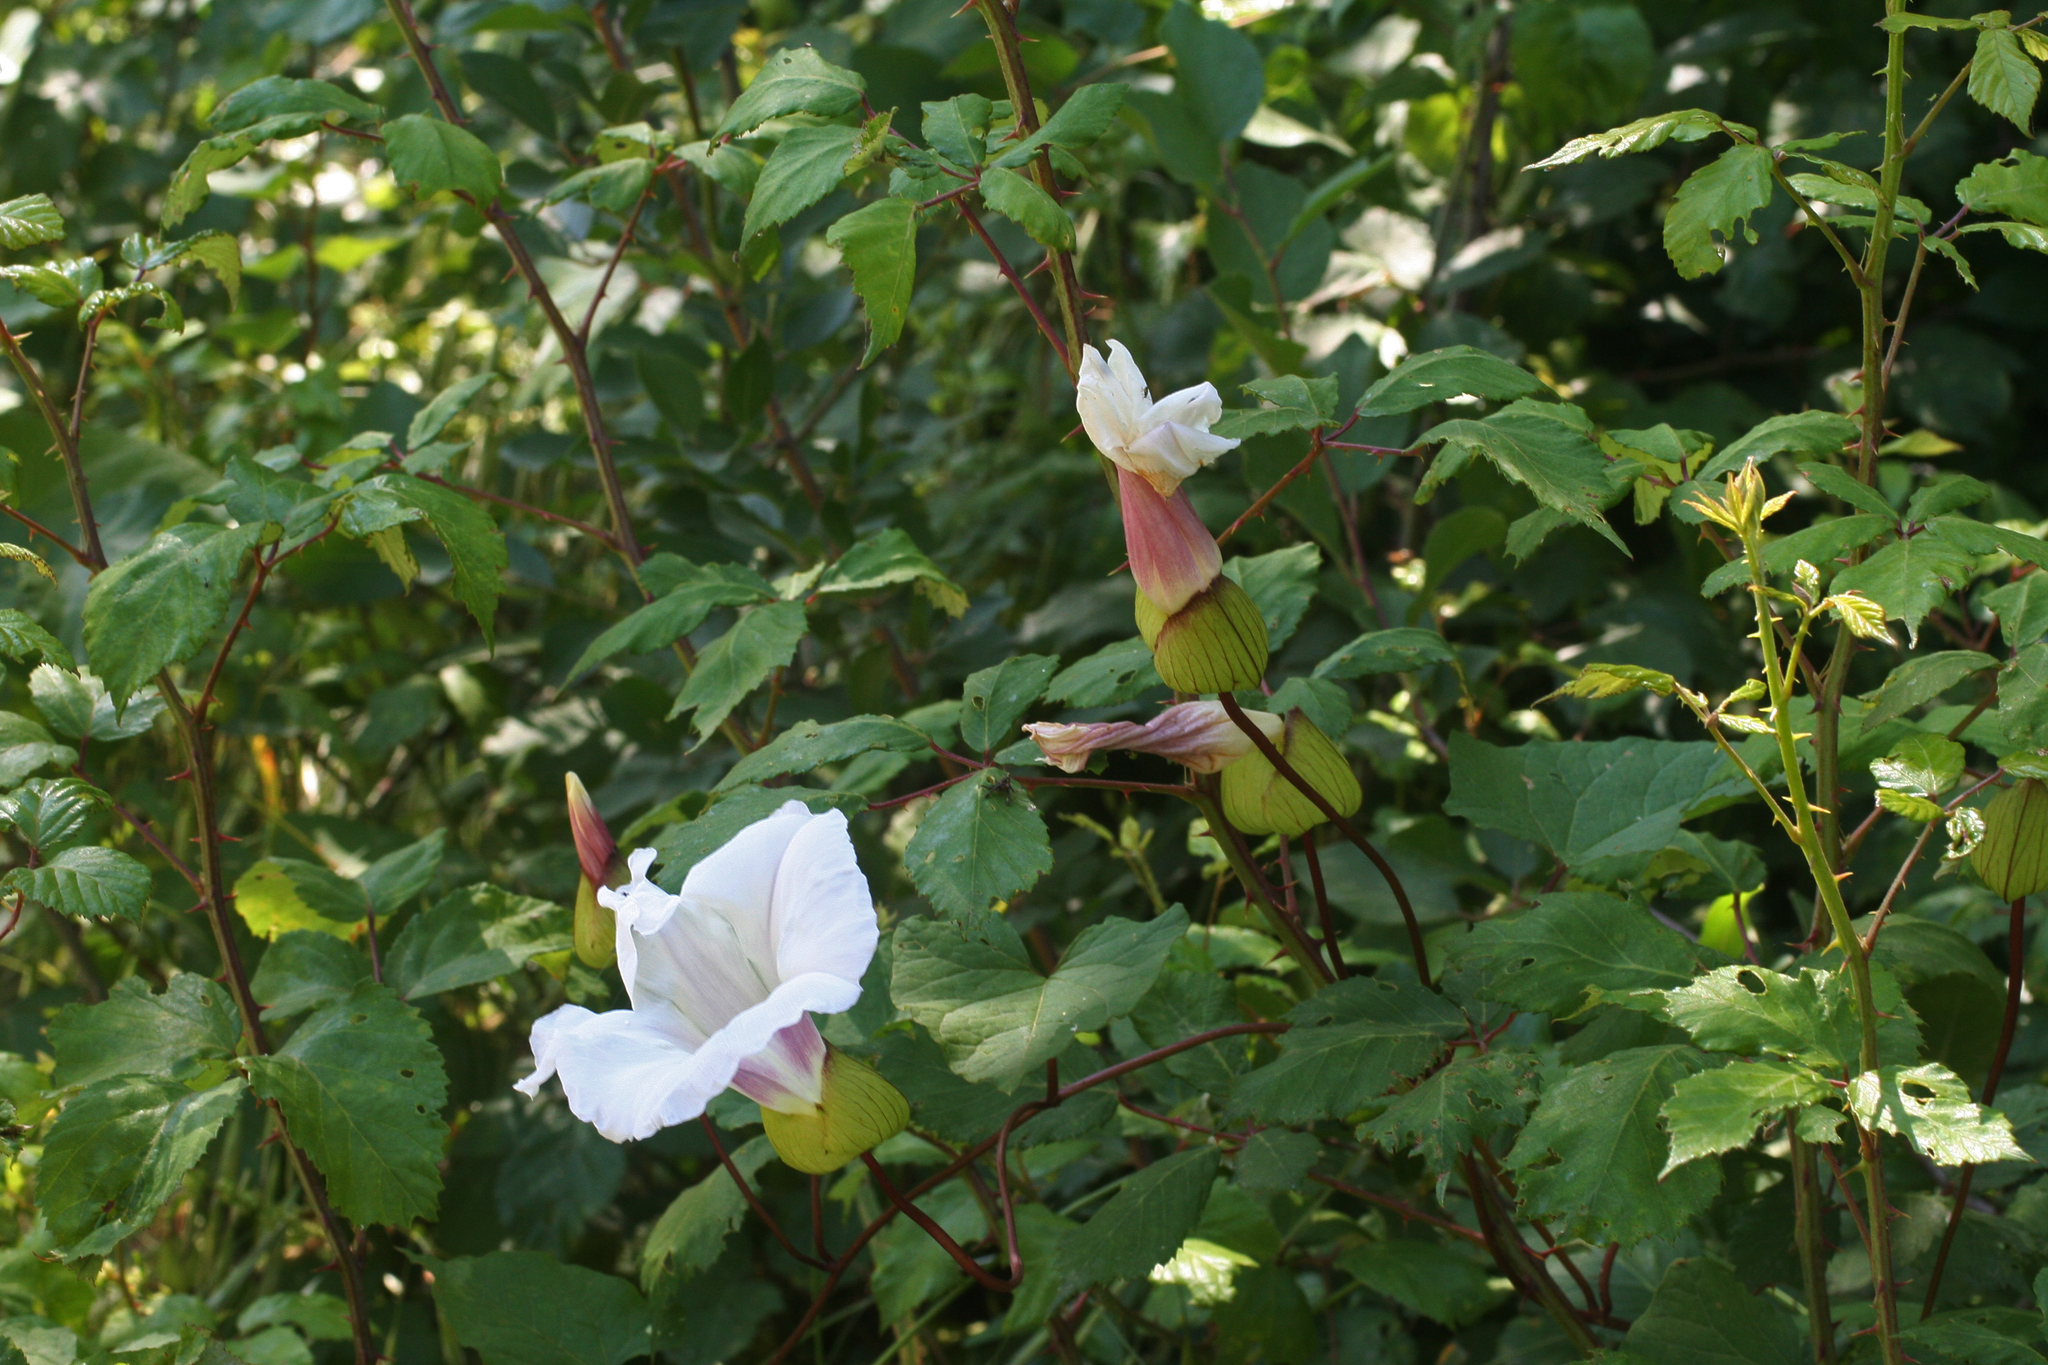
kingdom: Plantae
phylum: Tracheophyta
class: Magnoliopsida
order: Solanales
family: Convolvulaceae
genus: Calystegia
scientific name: Calystegia silvatica
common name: Large bindweed
